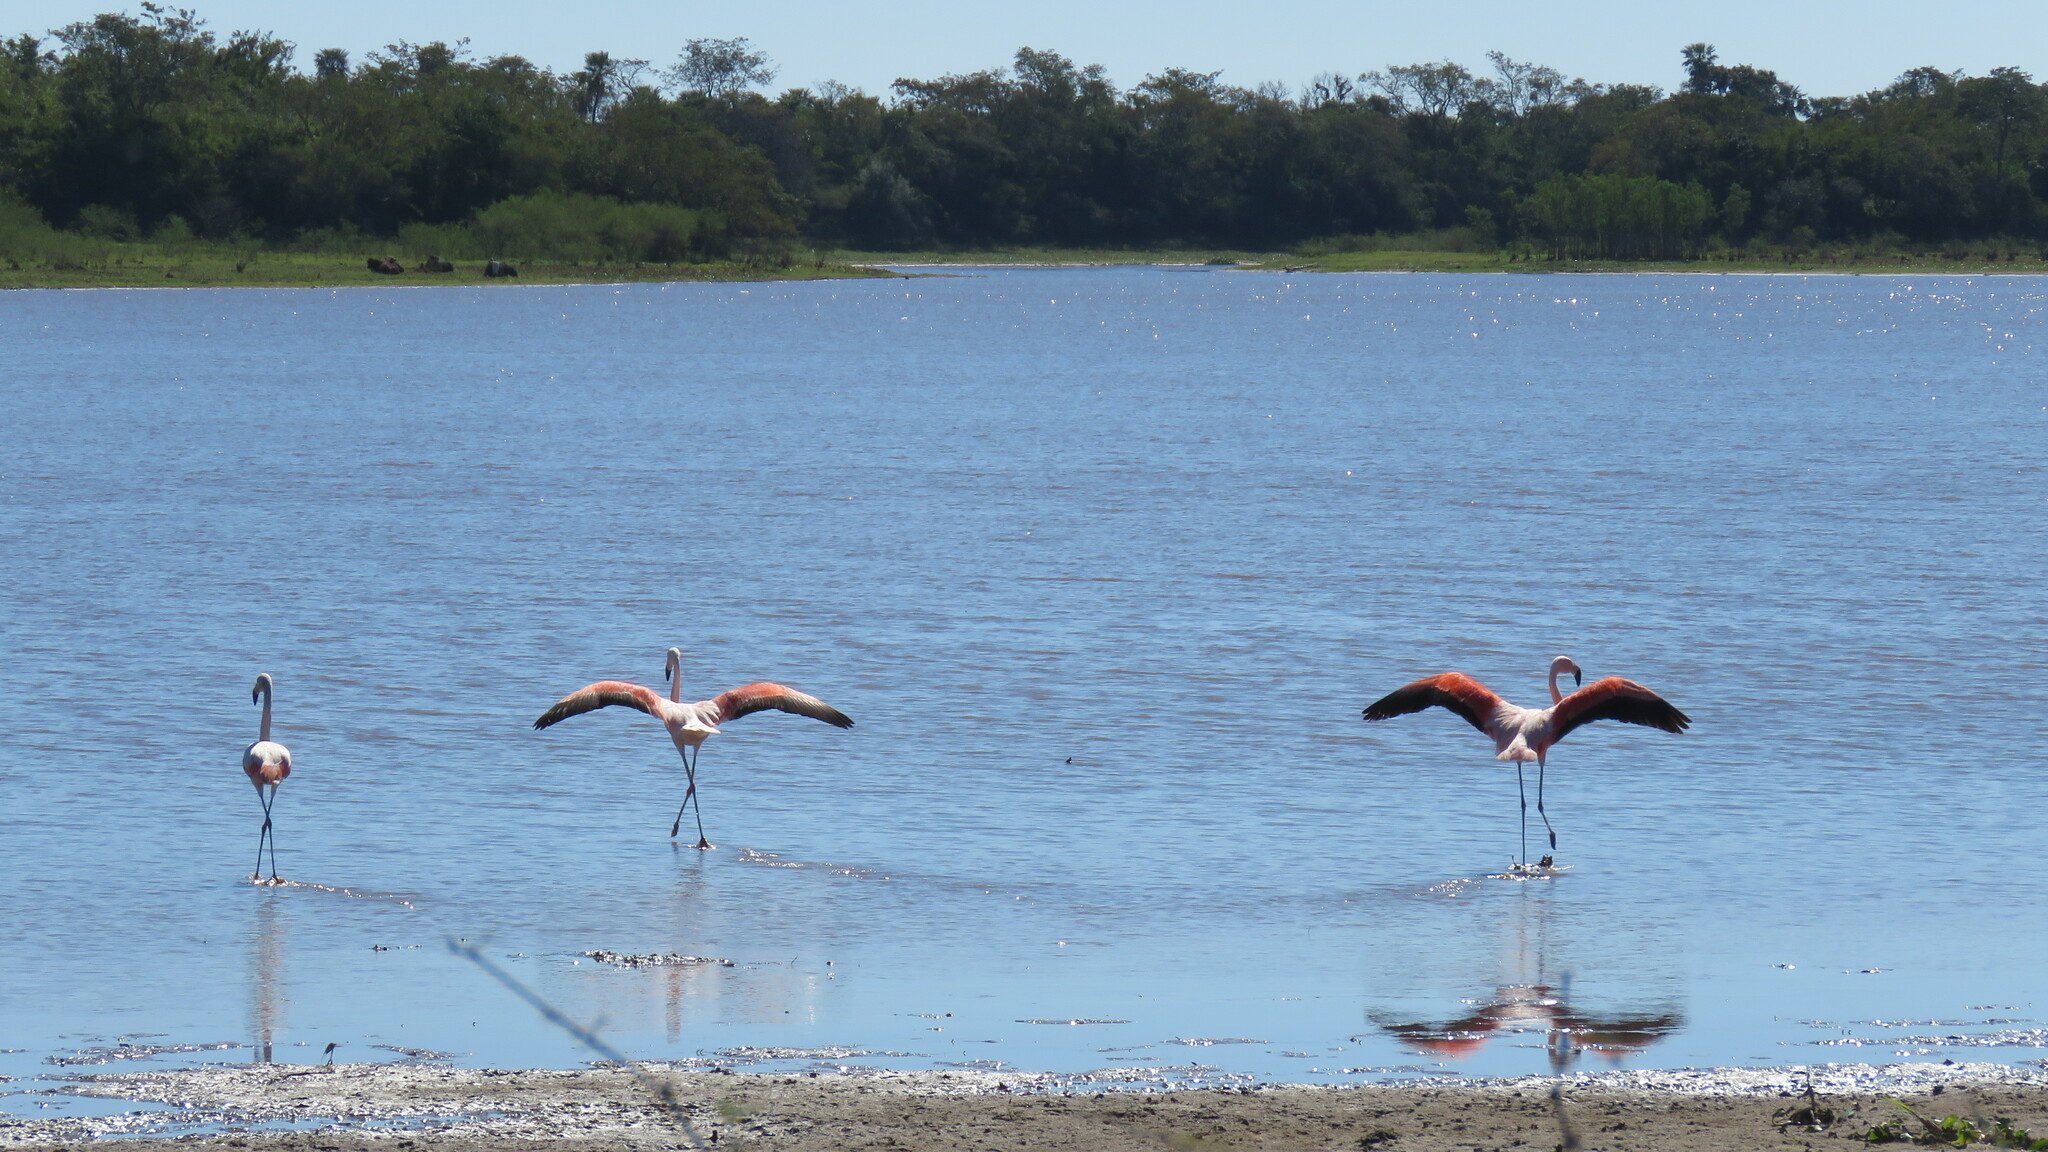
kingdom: Animalia
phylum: Chordata
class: Aves
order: Phoenicopteriformes
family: Phoenicopteridae
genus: Phoenicopterus
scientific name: Phoenicopterus chilensis
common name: Chilean flamingo
